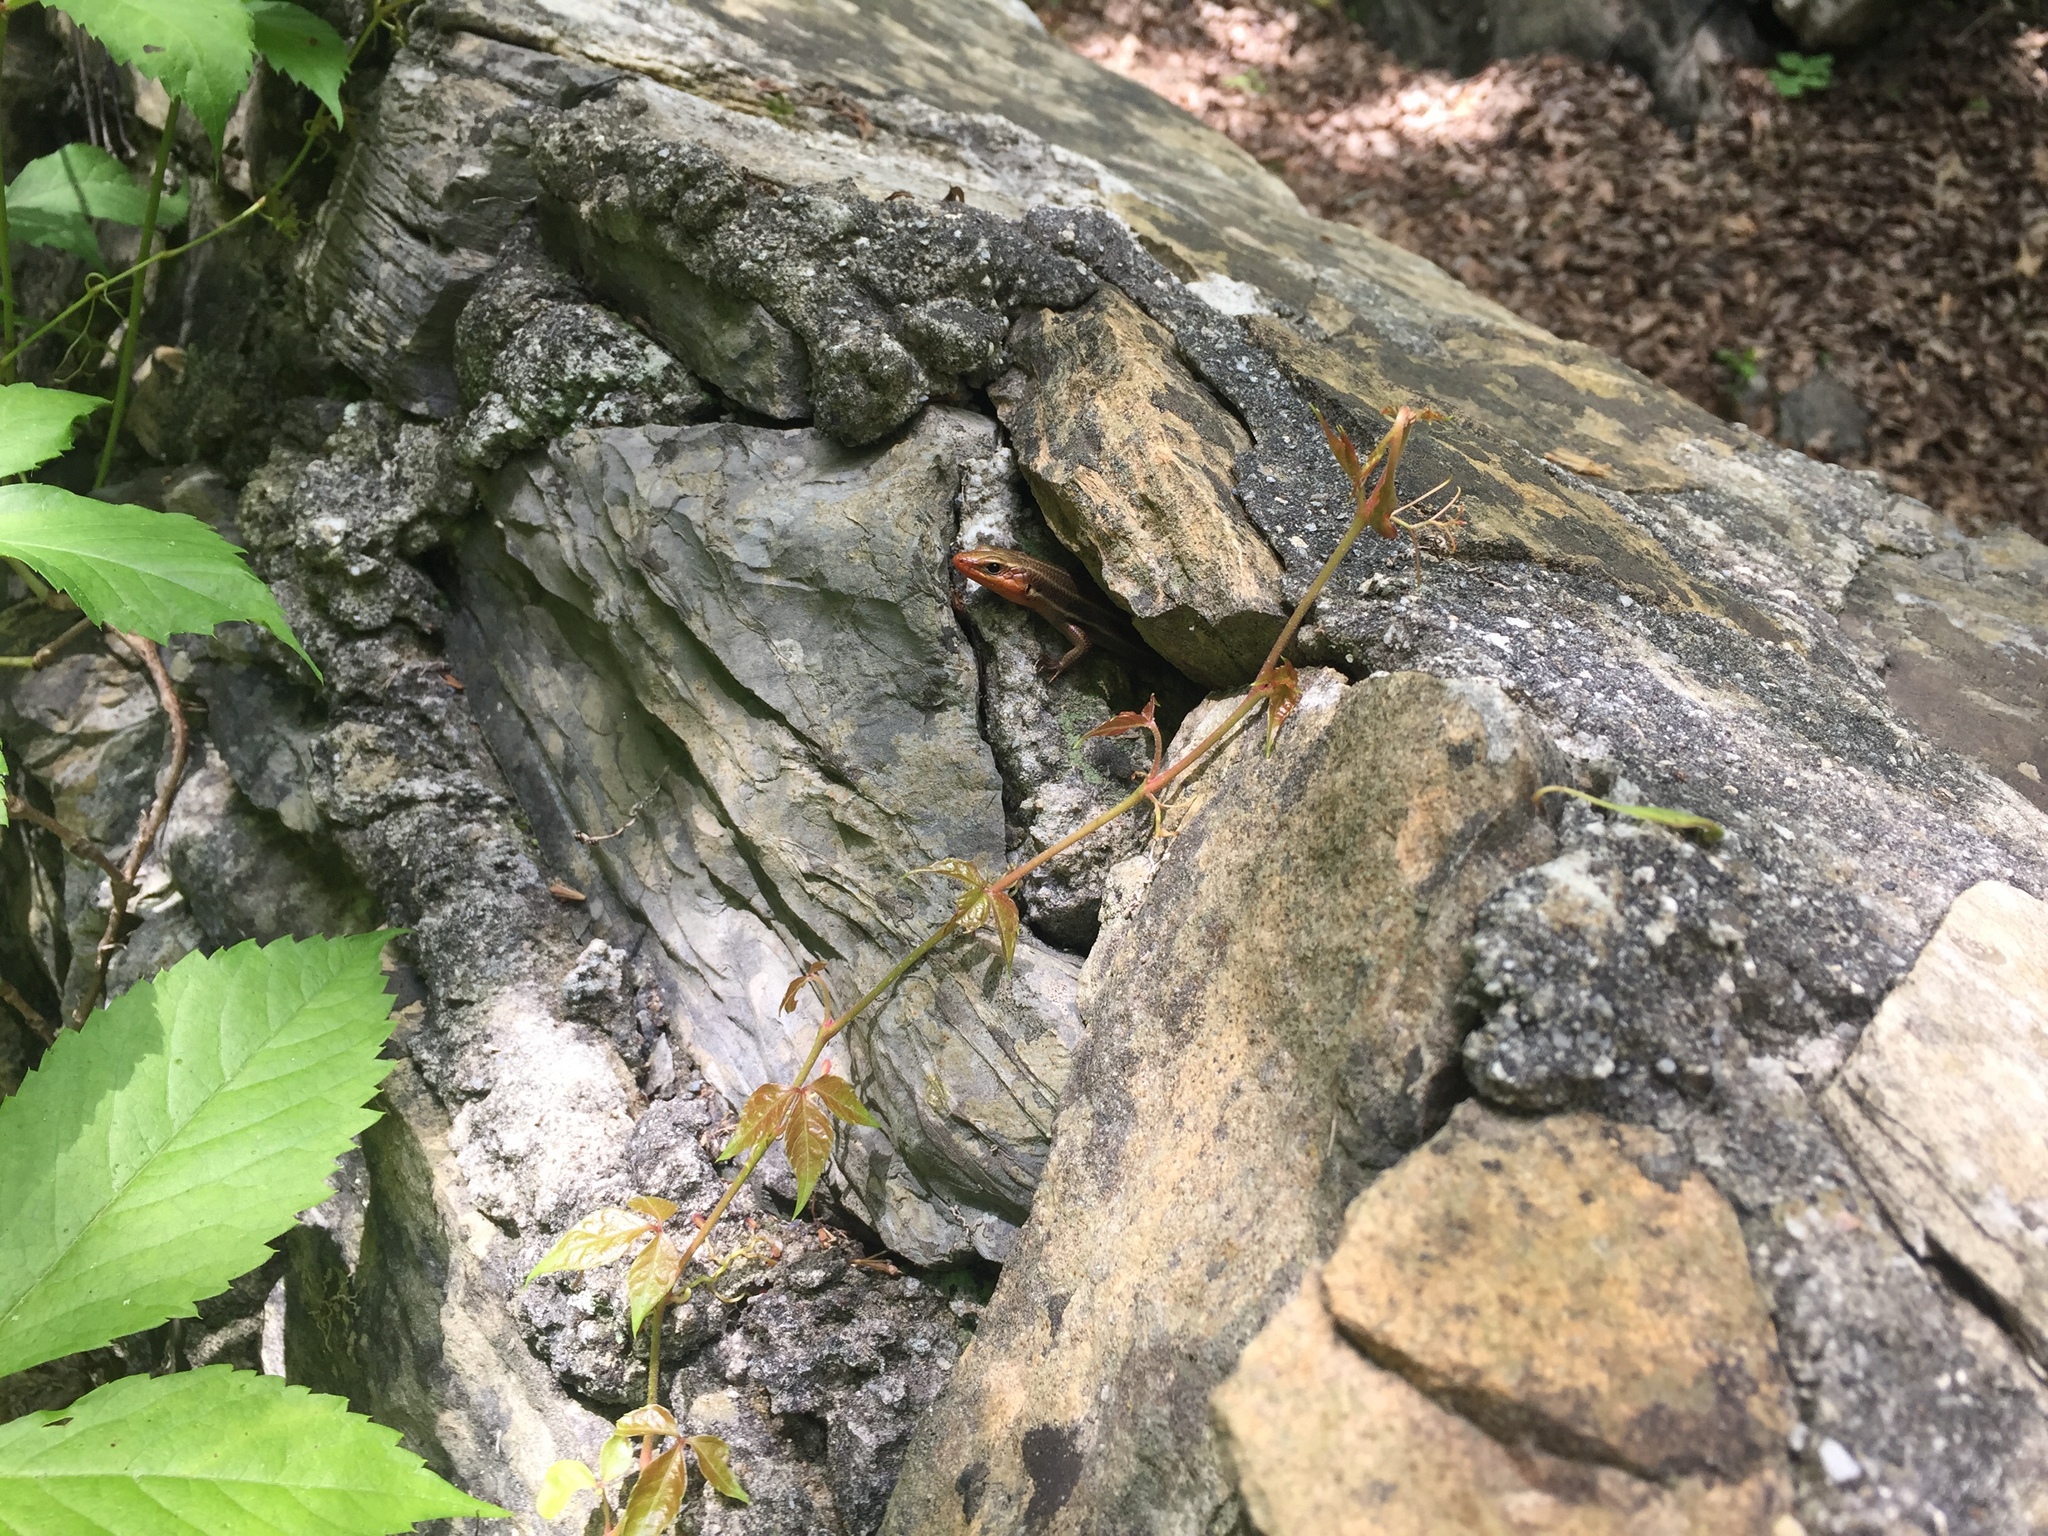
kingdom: Animalia
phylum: Chordata
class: Squamata
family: Scincidae
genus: Plestiodon
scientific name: Plestiodon fasciatus
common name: Five-lined skink
